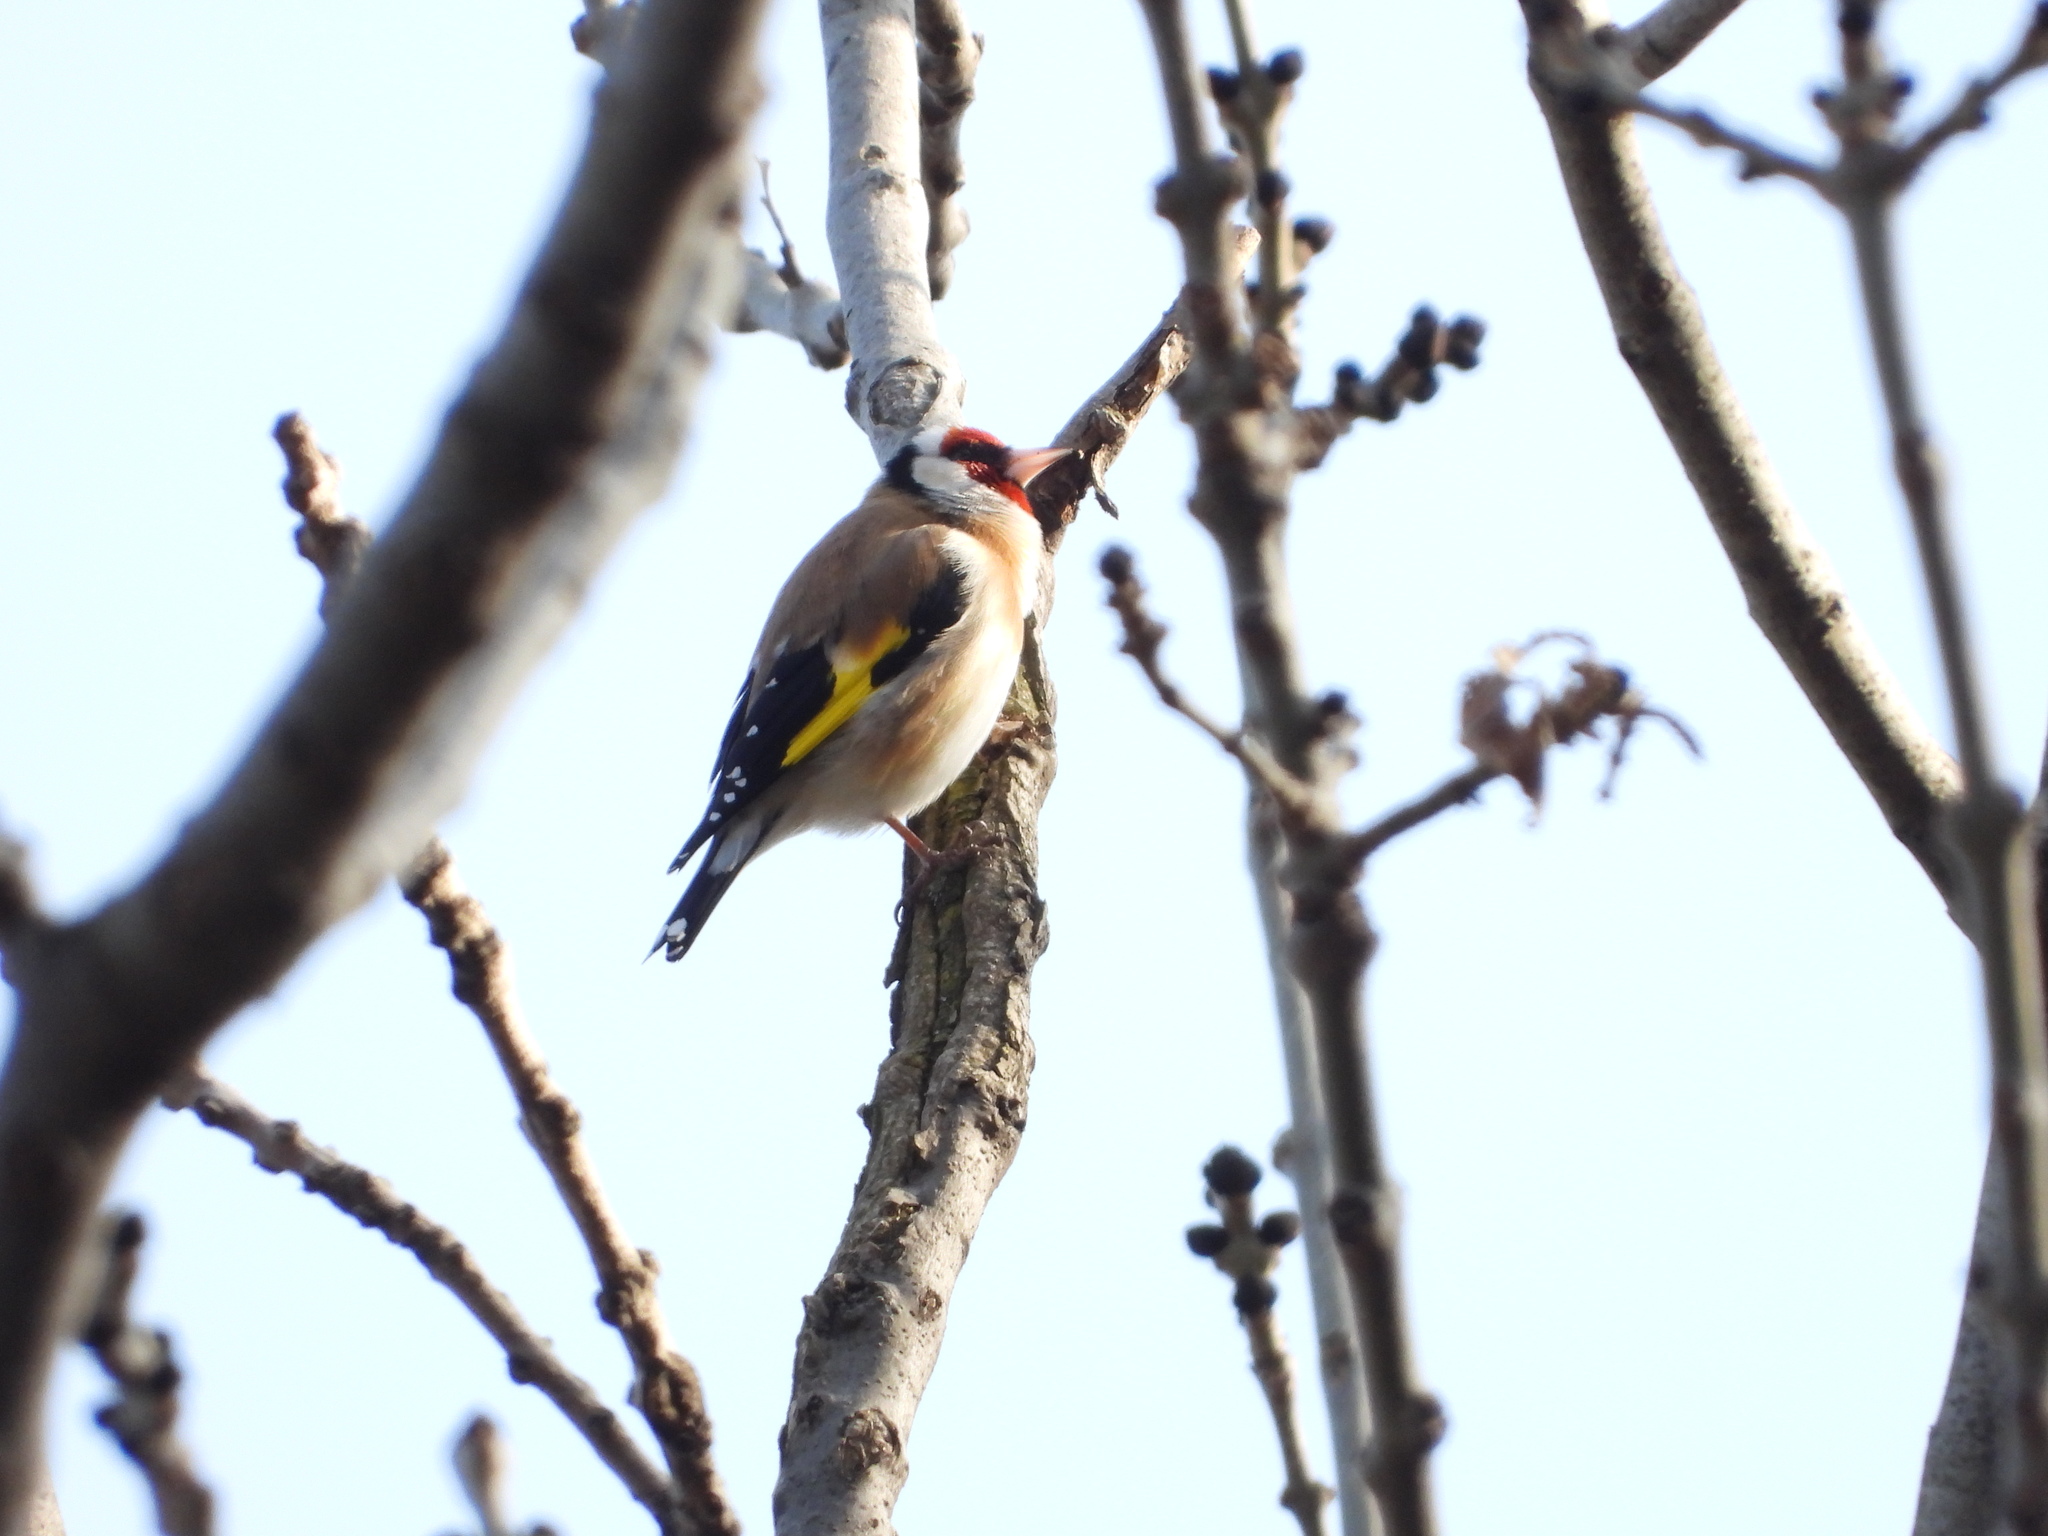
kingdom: Animalia
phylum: Chordata
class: Aves
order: Passeriformes
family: Fringillidae
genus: Carduelis
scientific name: Carduelis carduelis
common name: European goldfinch
